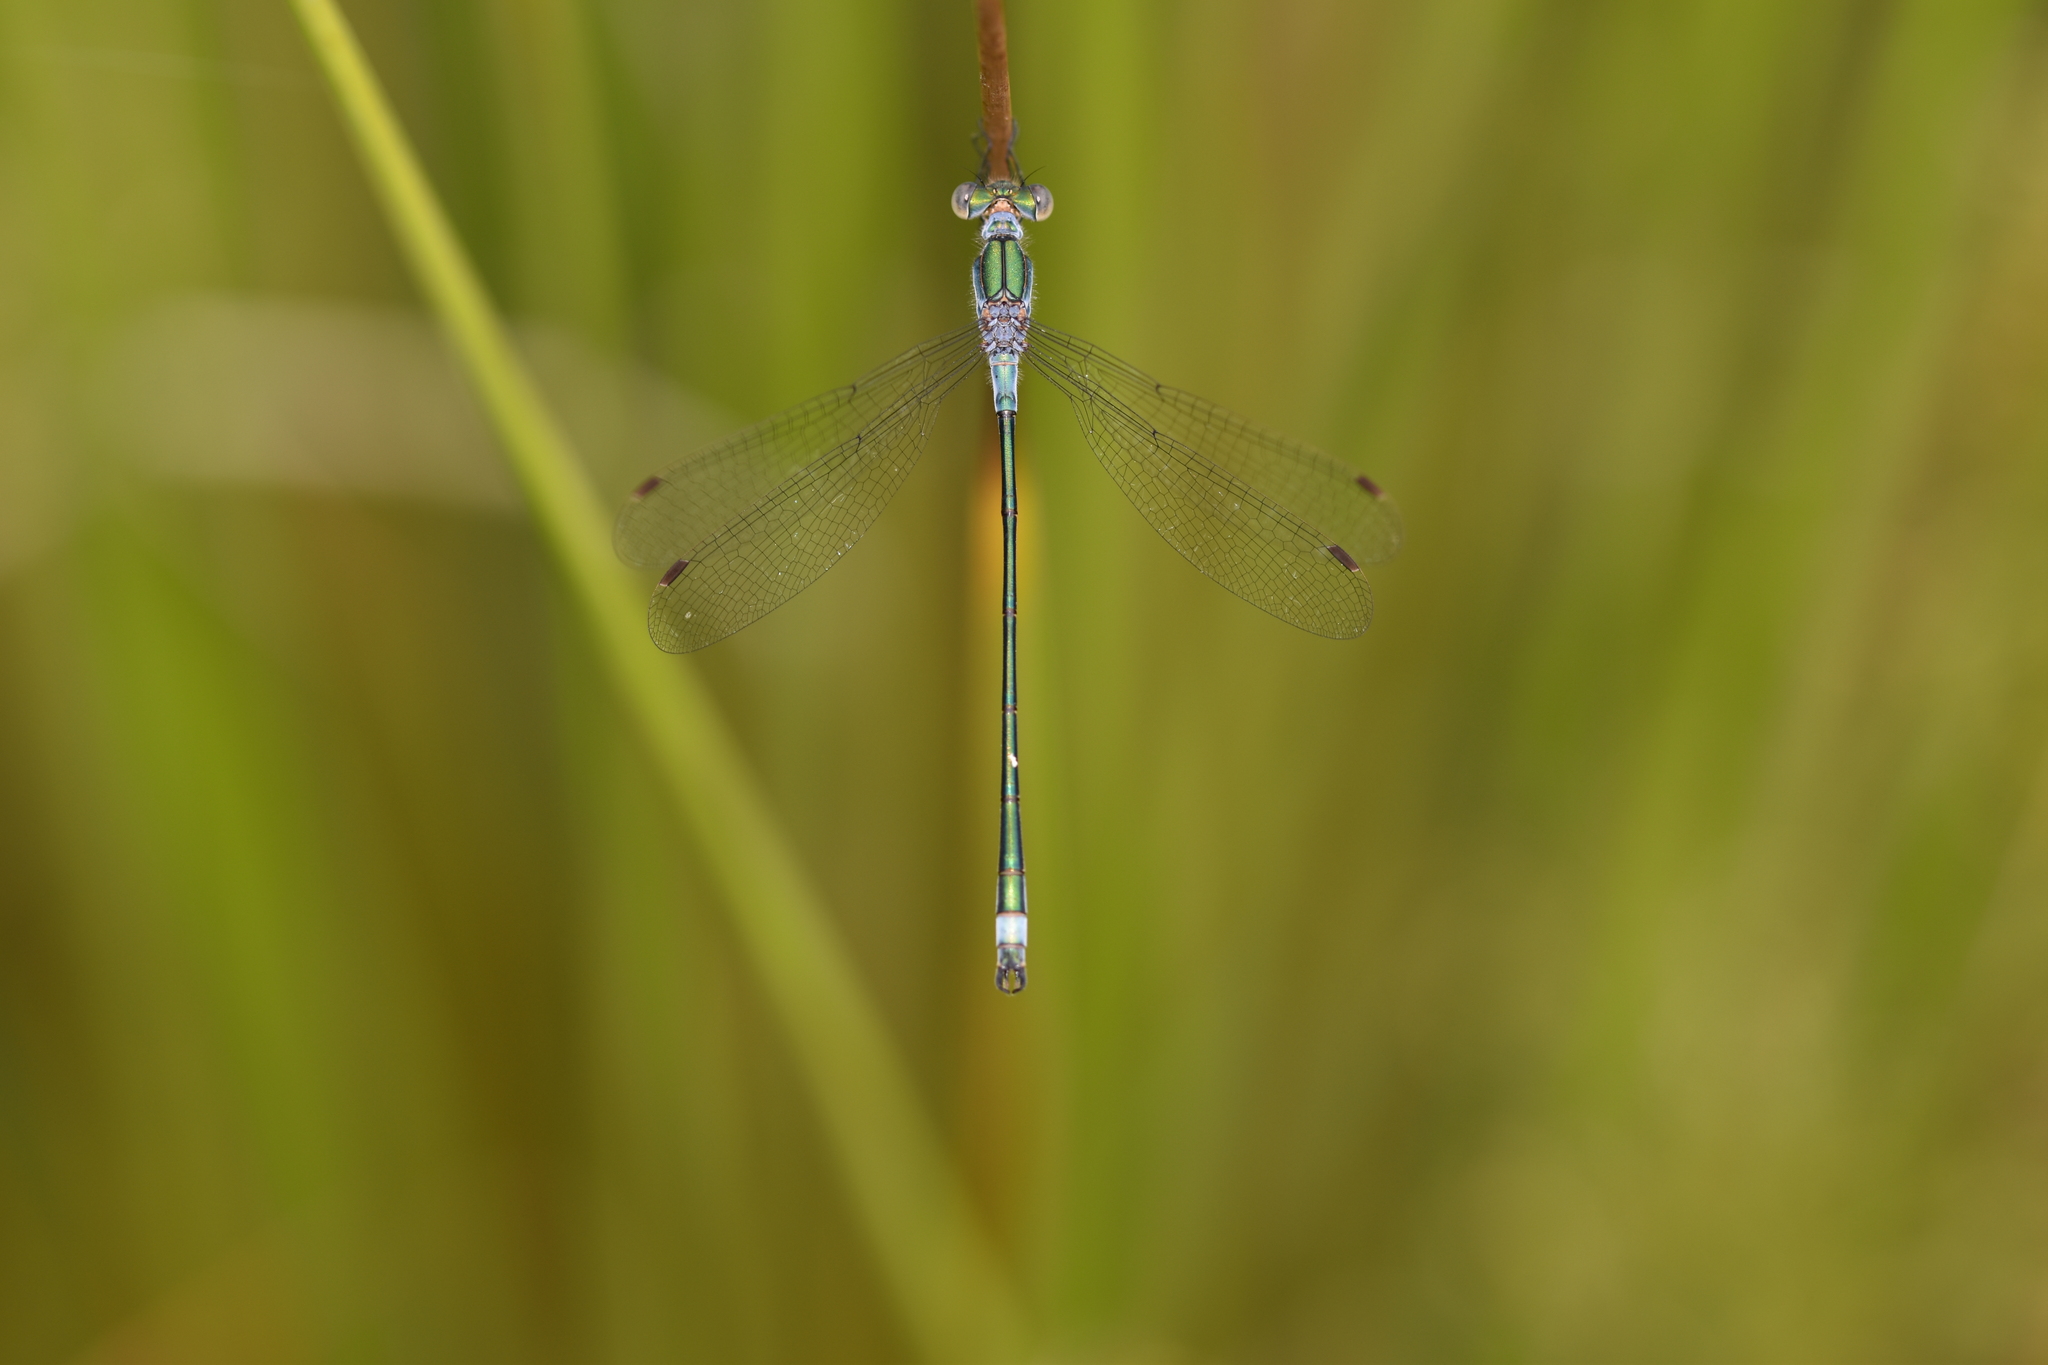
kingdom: Animalia
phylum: Arthropoda
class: Insecta
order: Odonata
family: Lestidae
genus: Lestes
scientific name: Lestes sponsa
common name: Common spreadwing
